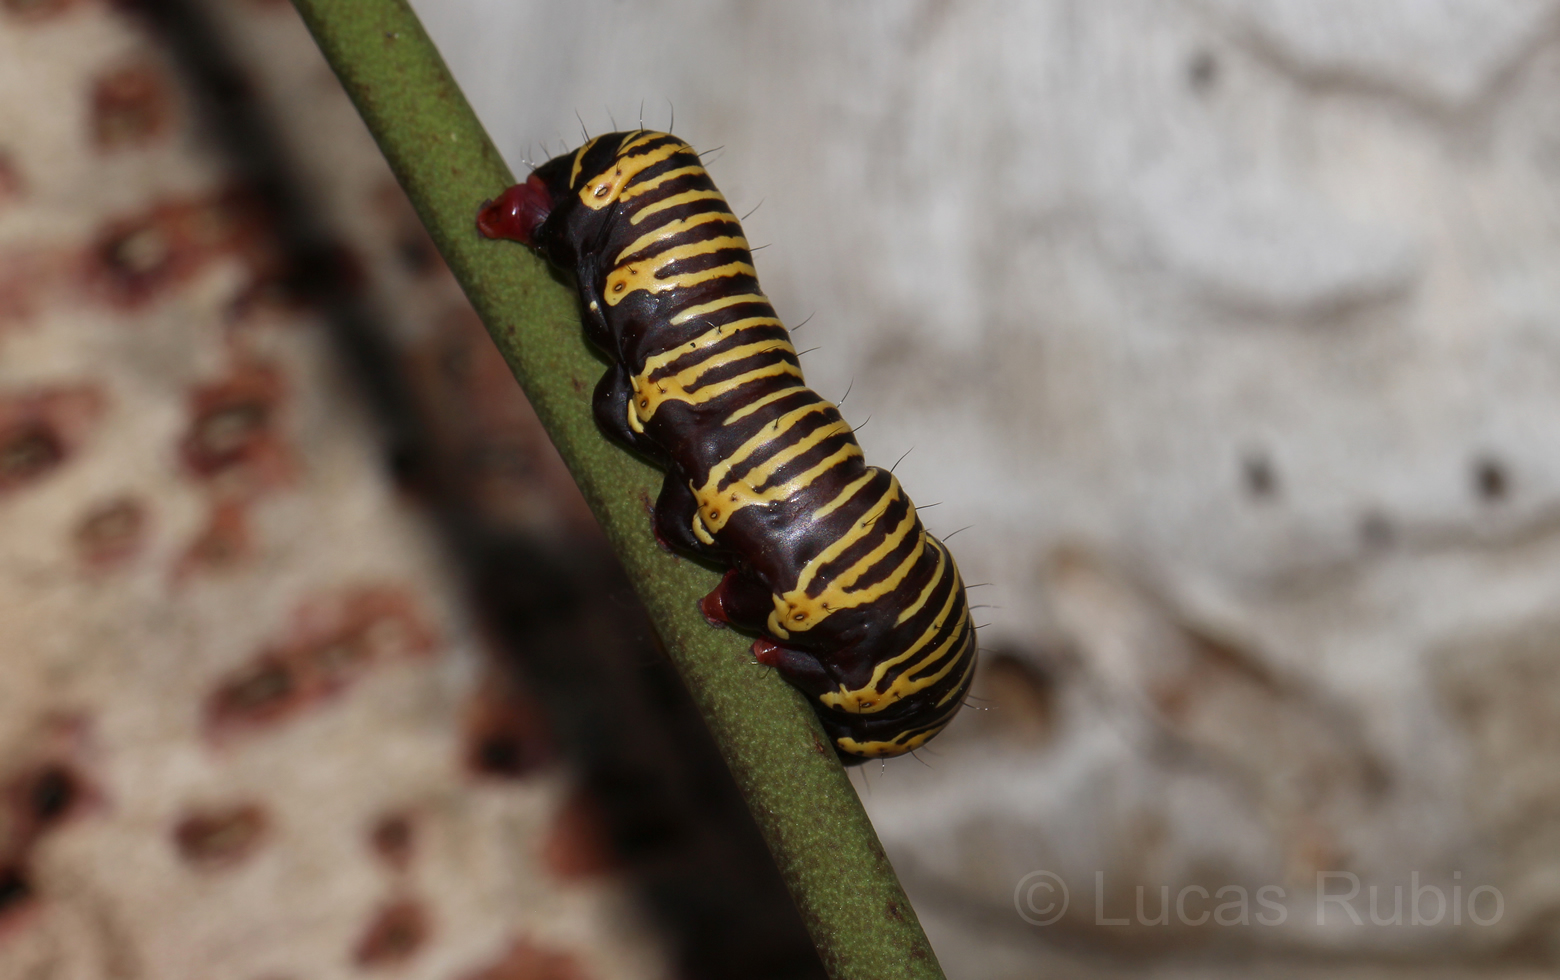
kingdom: Animalia
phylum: Arthropoda
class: Insecta
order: Lepidoptera
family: Erebidae
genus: Cabralia
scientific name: Cabralia Cromobergia teichii
